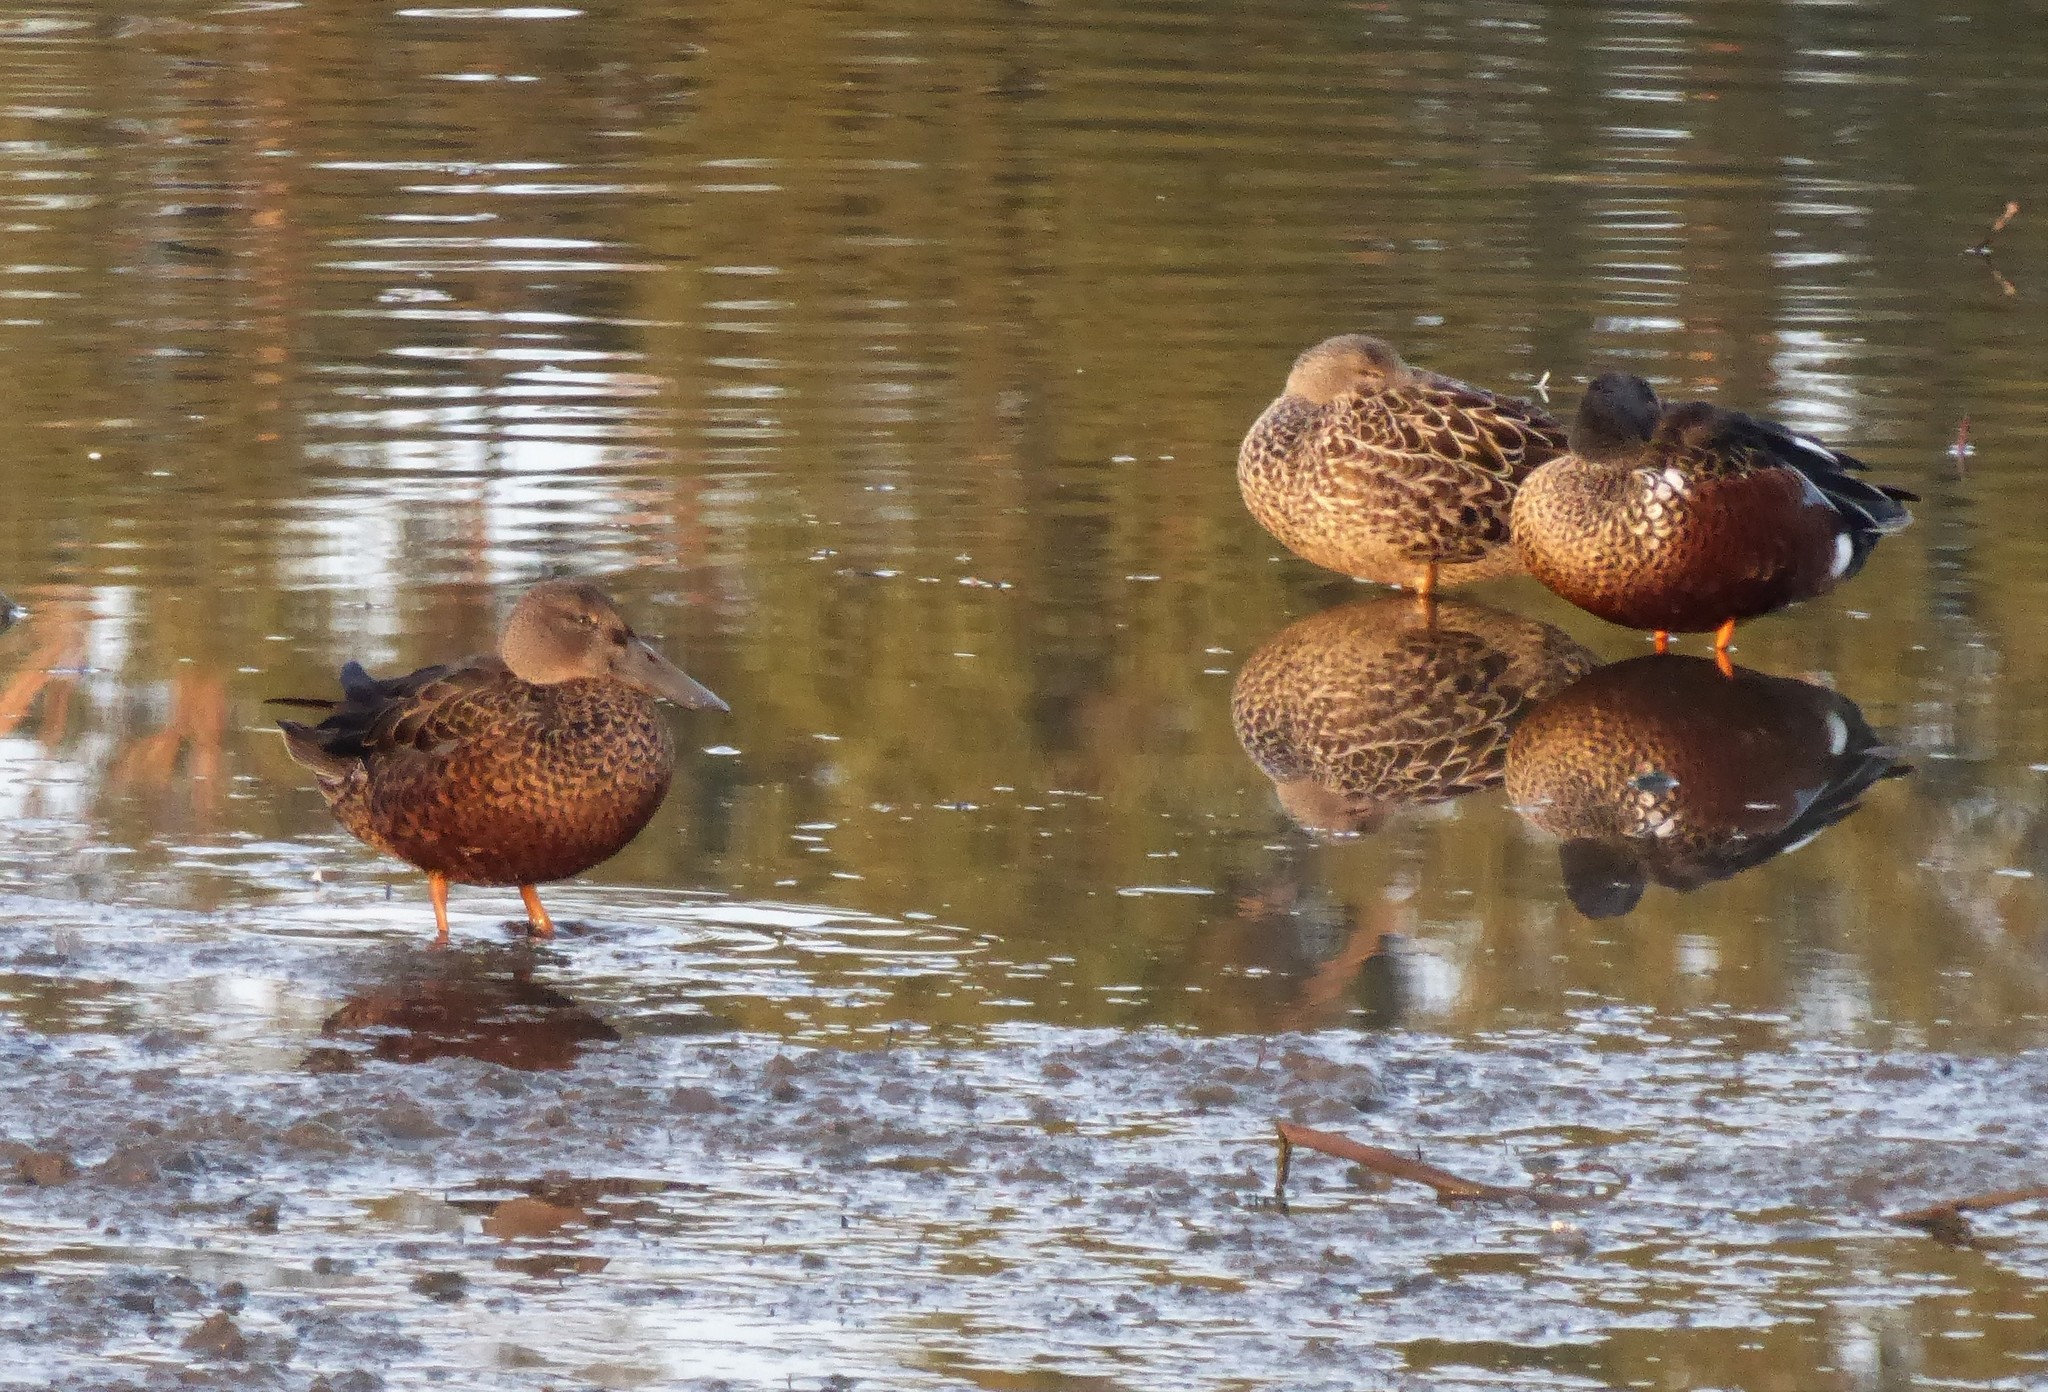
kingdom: Animalia
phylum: Chordata
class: Aves
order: Anseriformes
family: Anatidae
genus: Spatula
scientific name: Spatula rhynchotis
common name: Australian shoveler
